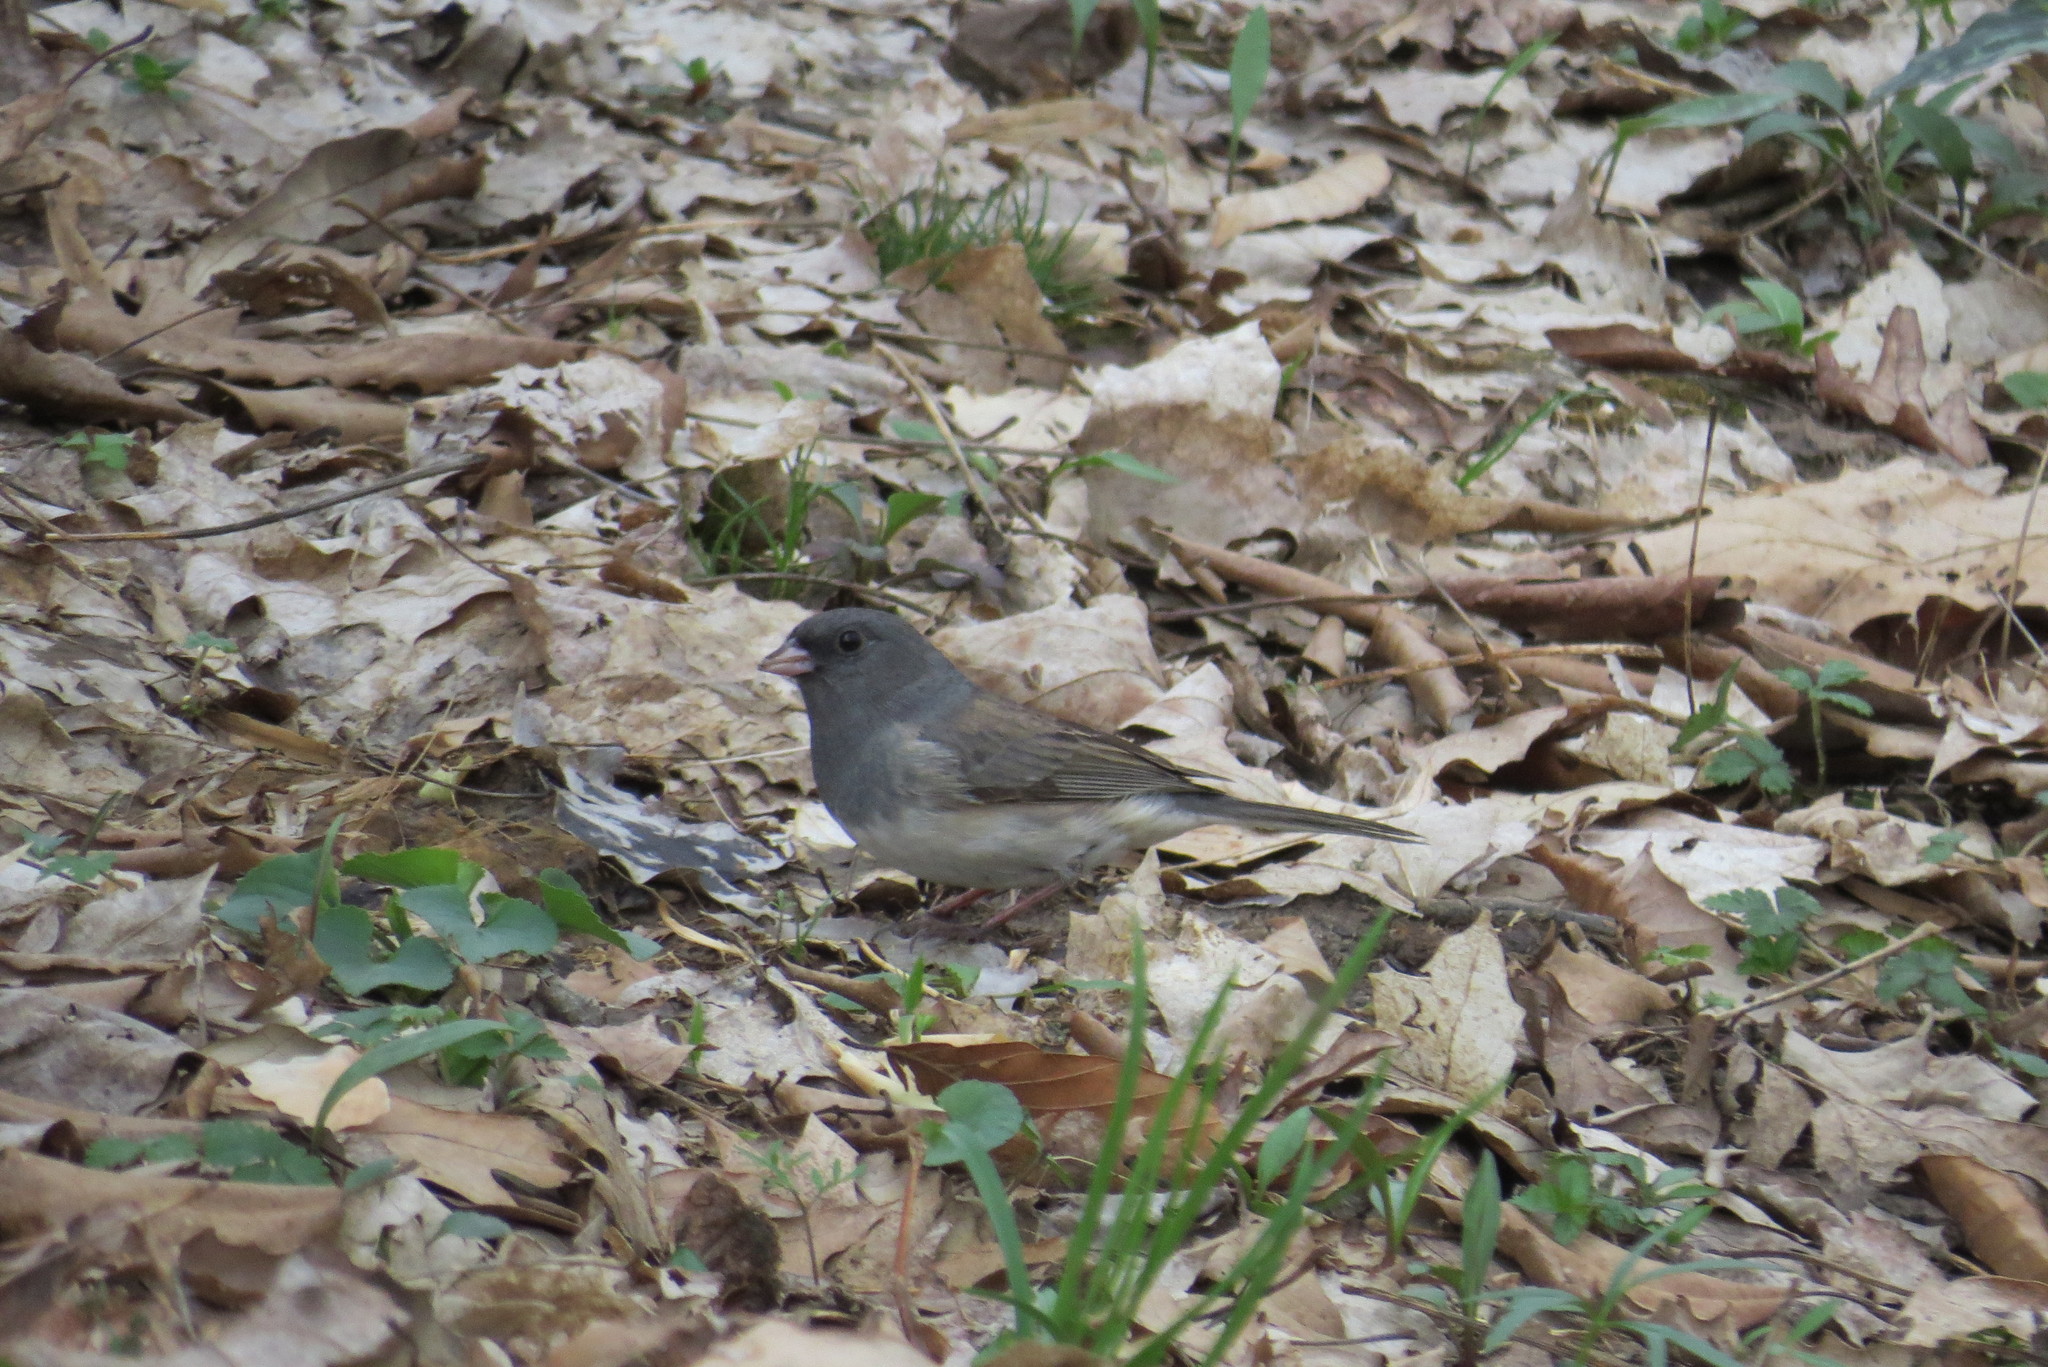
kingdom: Animalia
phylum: Chordata
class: Aves
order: Passeriformes
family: Passerellidae
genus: Junco
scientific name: Junco hyemalis
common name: Dark-eyed junco
